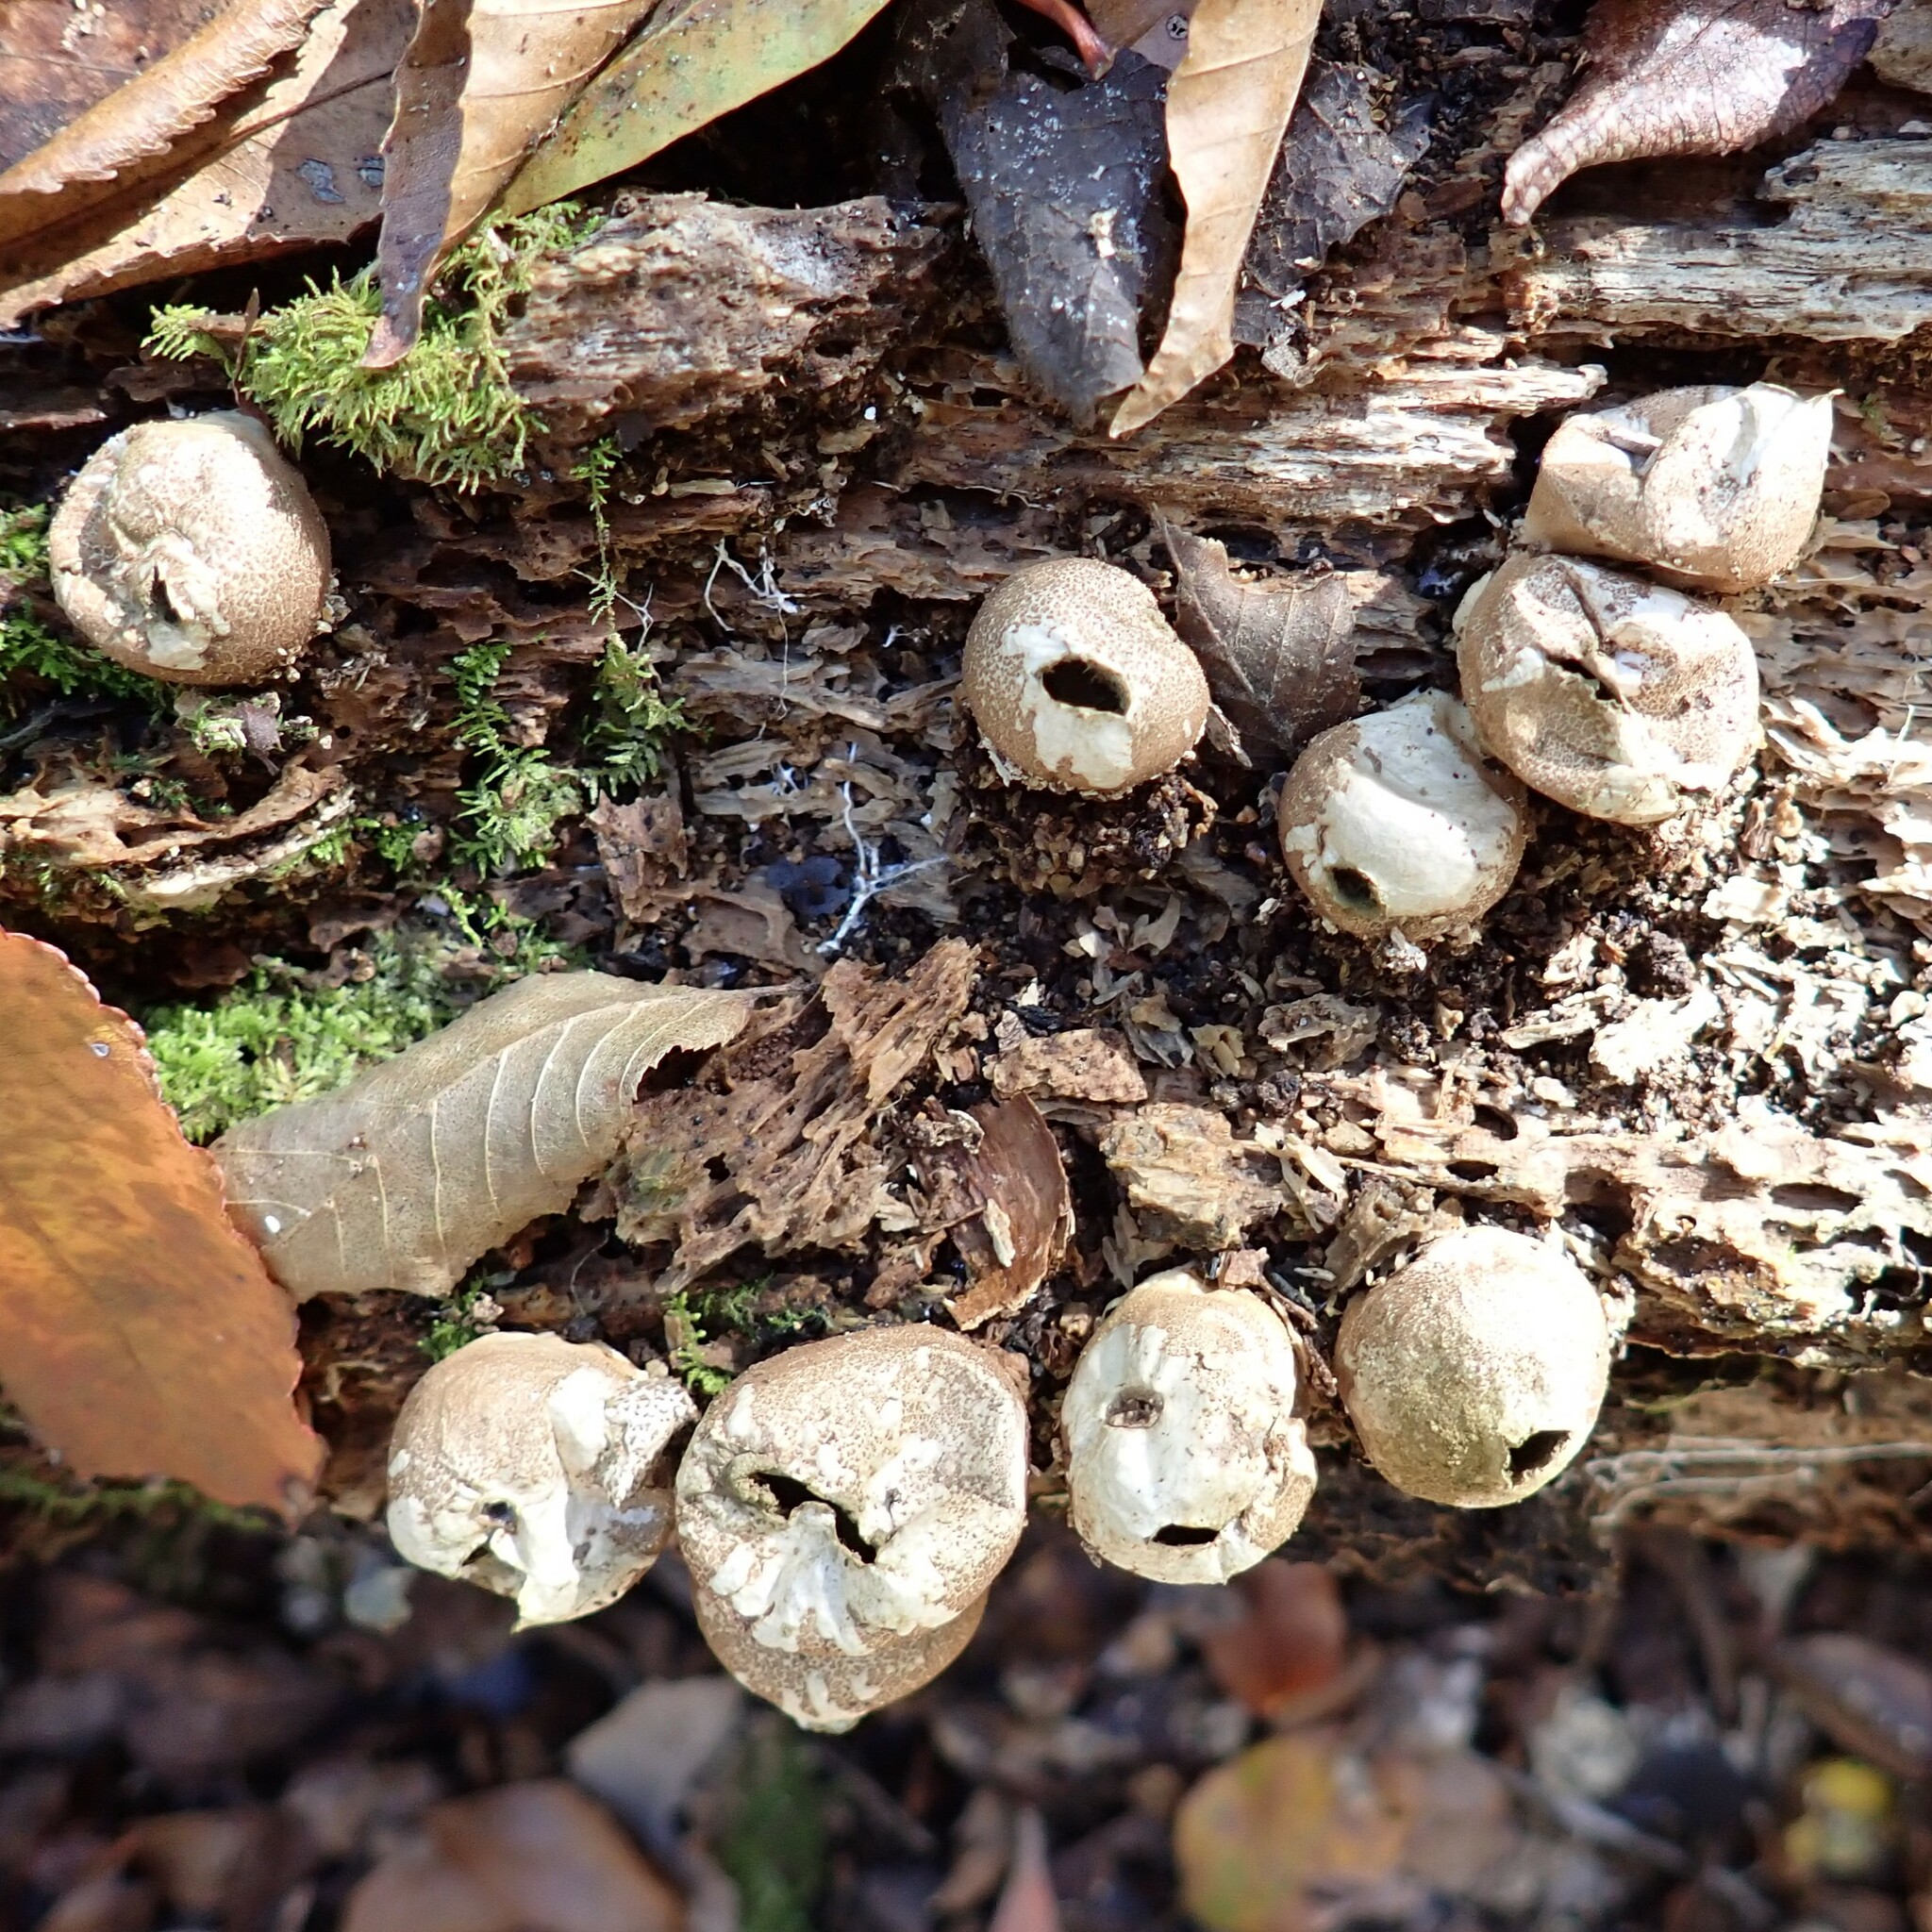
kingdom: Fungi
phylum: Basidiomycota
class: Agaricomycetes
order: Agaricales
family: Lycoperdaceae
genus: Apioperdon
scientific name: Apioperdon pyriforme
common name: Pear-shaped puffball
